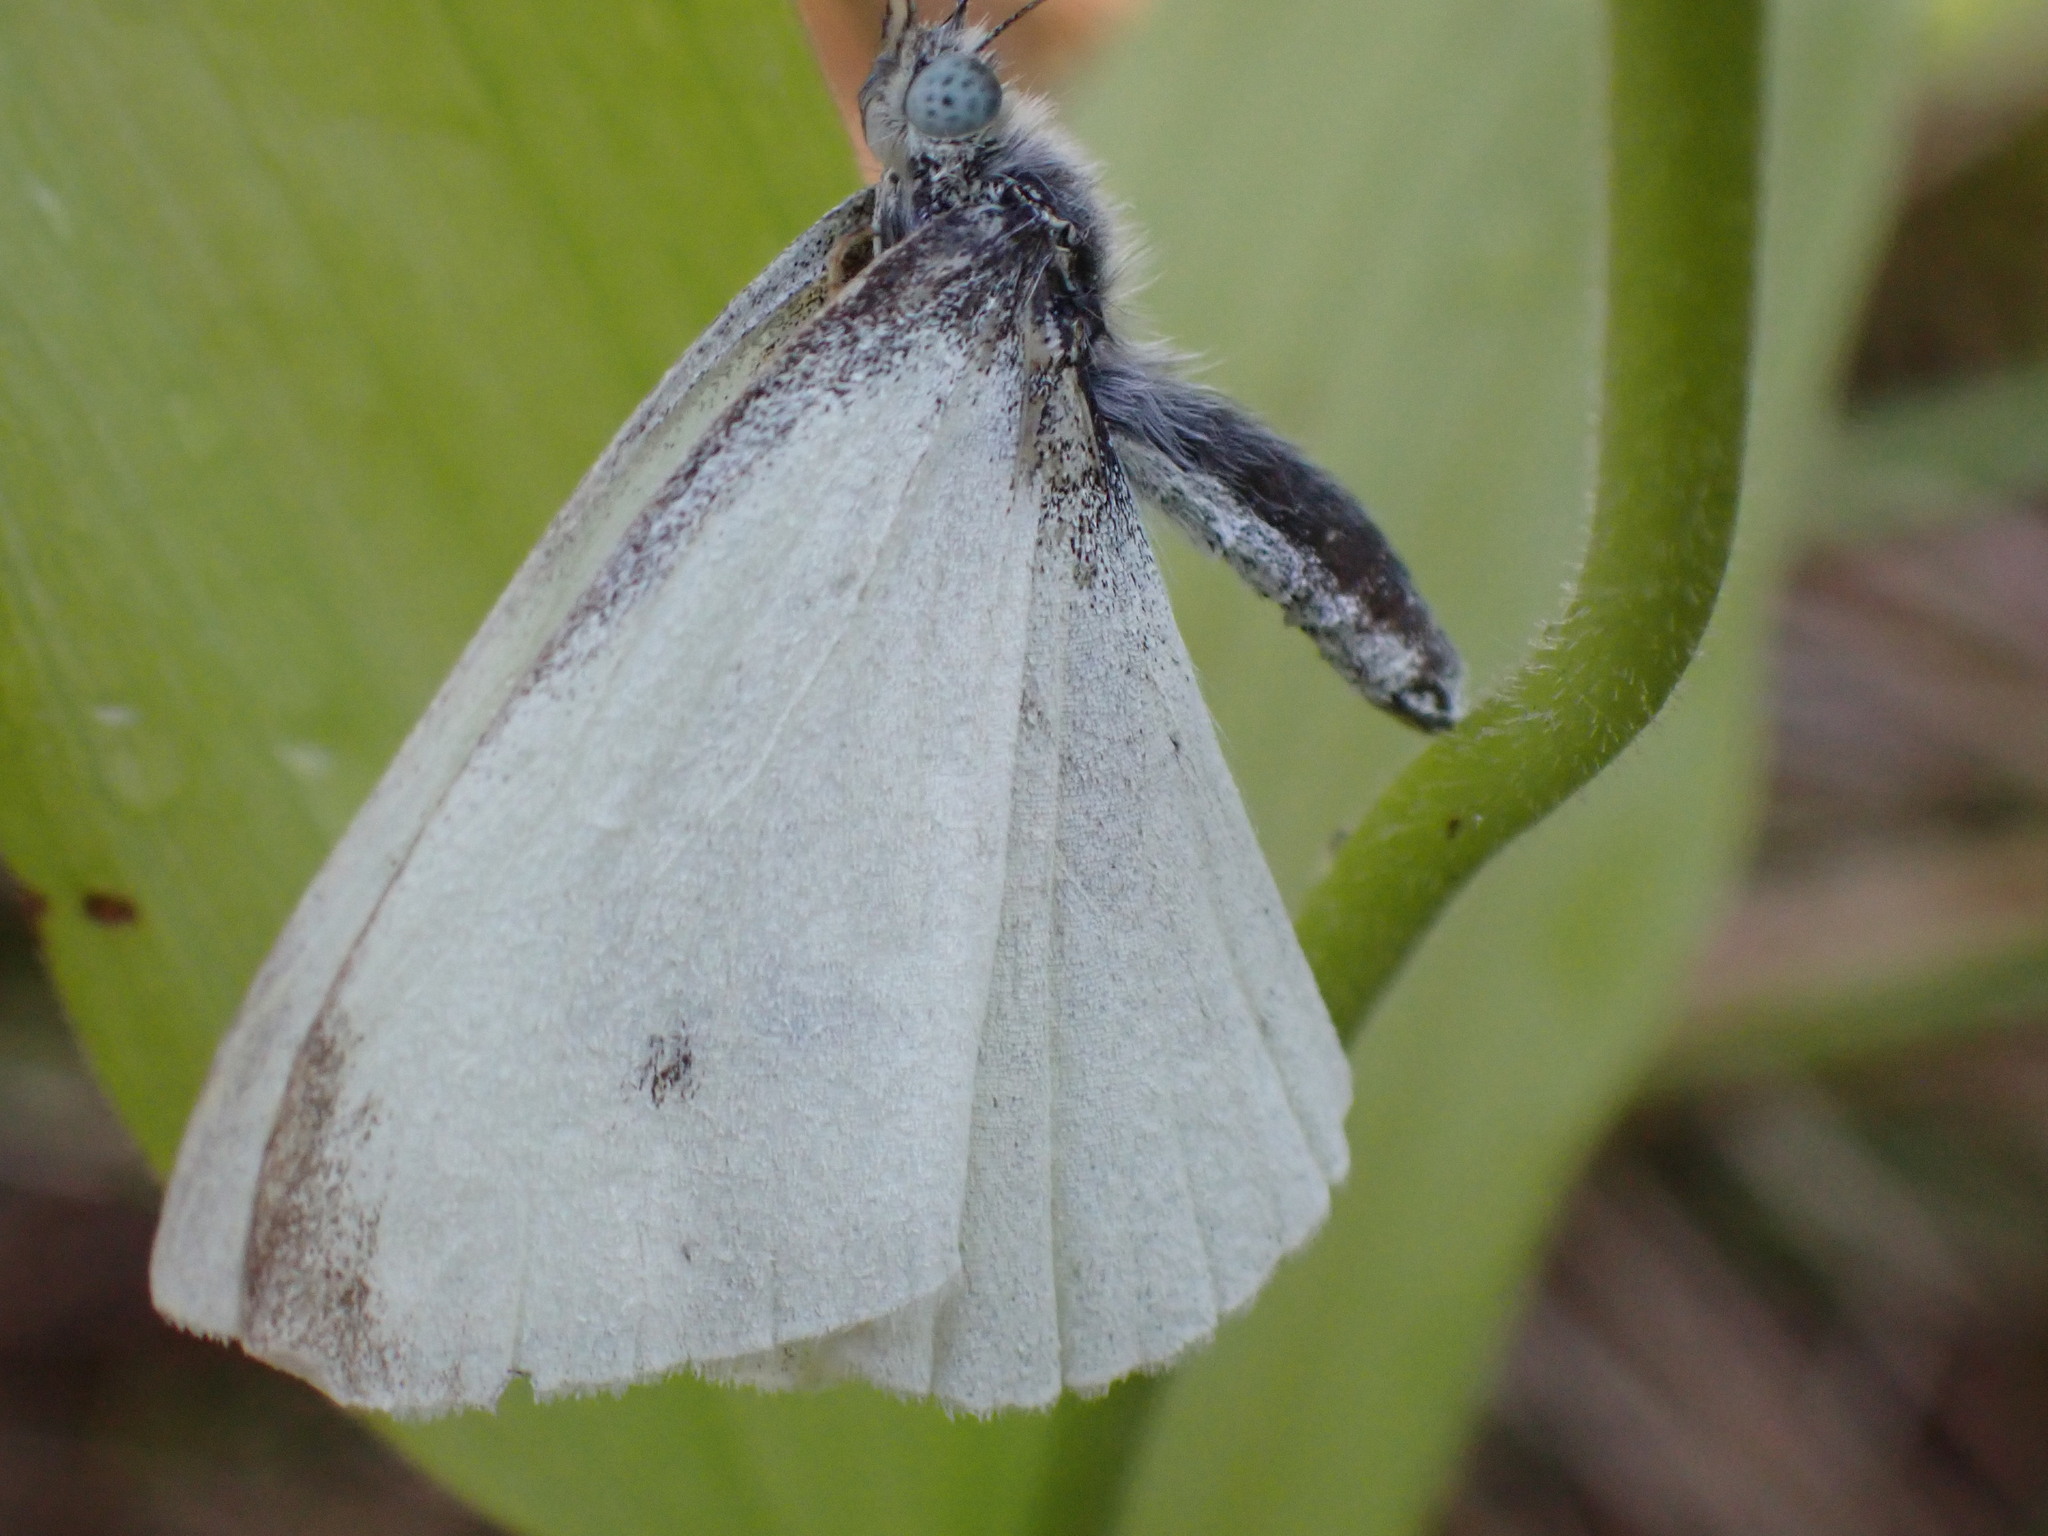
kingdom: Animalia
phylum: Arthropoda
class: Insecta
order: Lepidoptera
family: Pieridae
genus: Pieris
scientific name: Pieris rapae
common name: Small white
